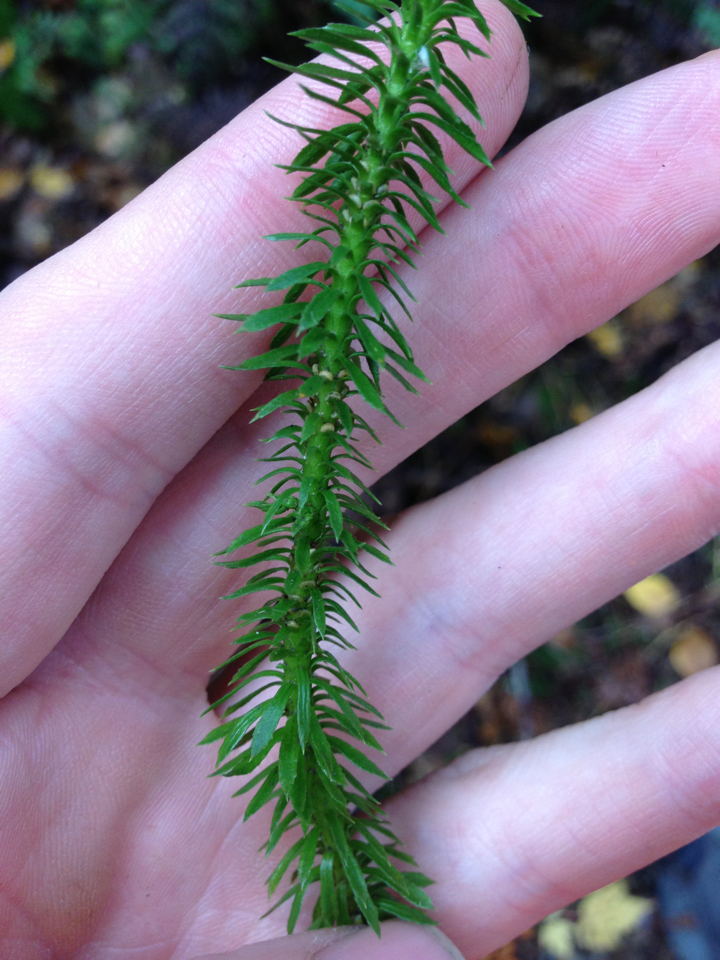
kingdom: Plantae
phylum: Tracheophyta
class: Lycopodiopsida
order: Lycopodiales
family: Lycopodiaceae
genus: Huperzia
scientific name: Huperzia lucidula
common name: Shining clubmoss
